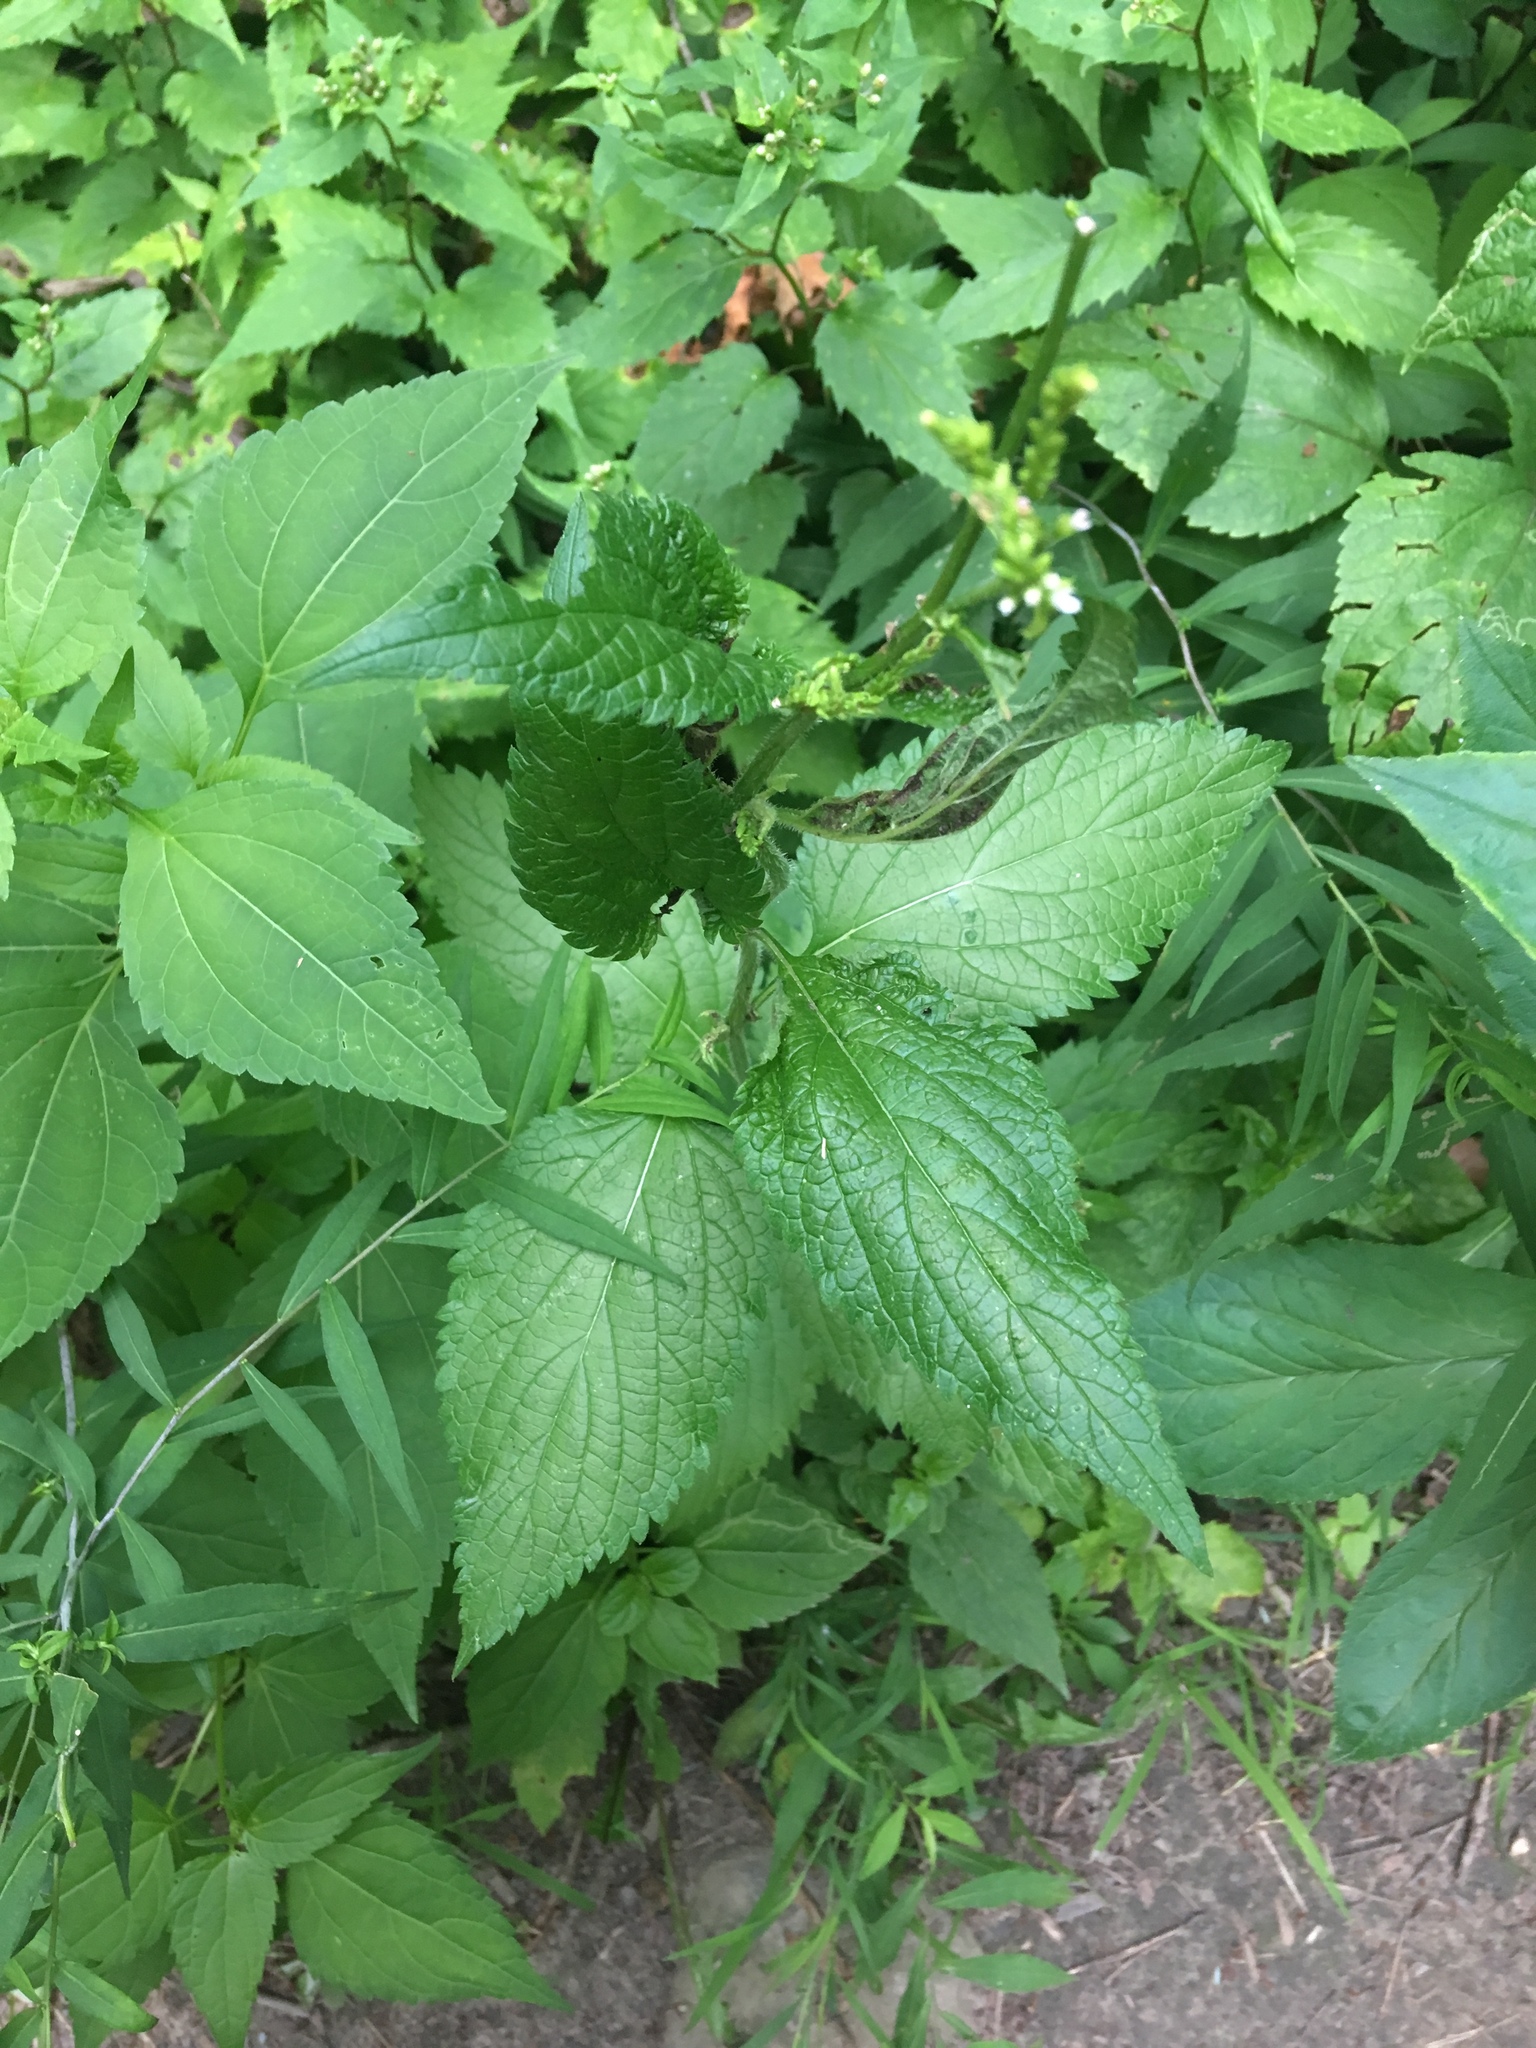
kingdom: Plantae
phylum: Tracheophyta
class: Magnoliopsida
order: Lamiales
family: Verbenaceae
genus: Verbena
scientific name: Verbena urticifolia
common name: Nettle-leaved vervain
